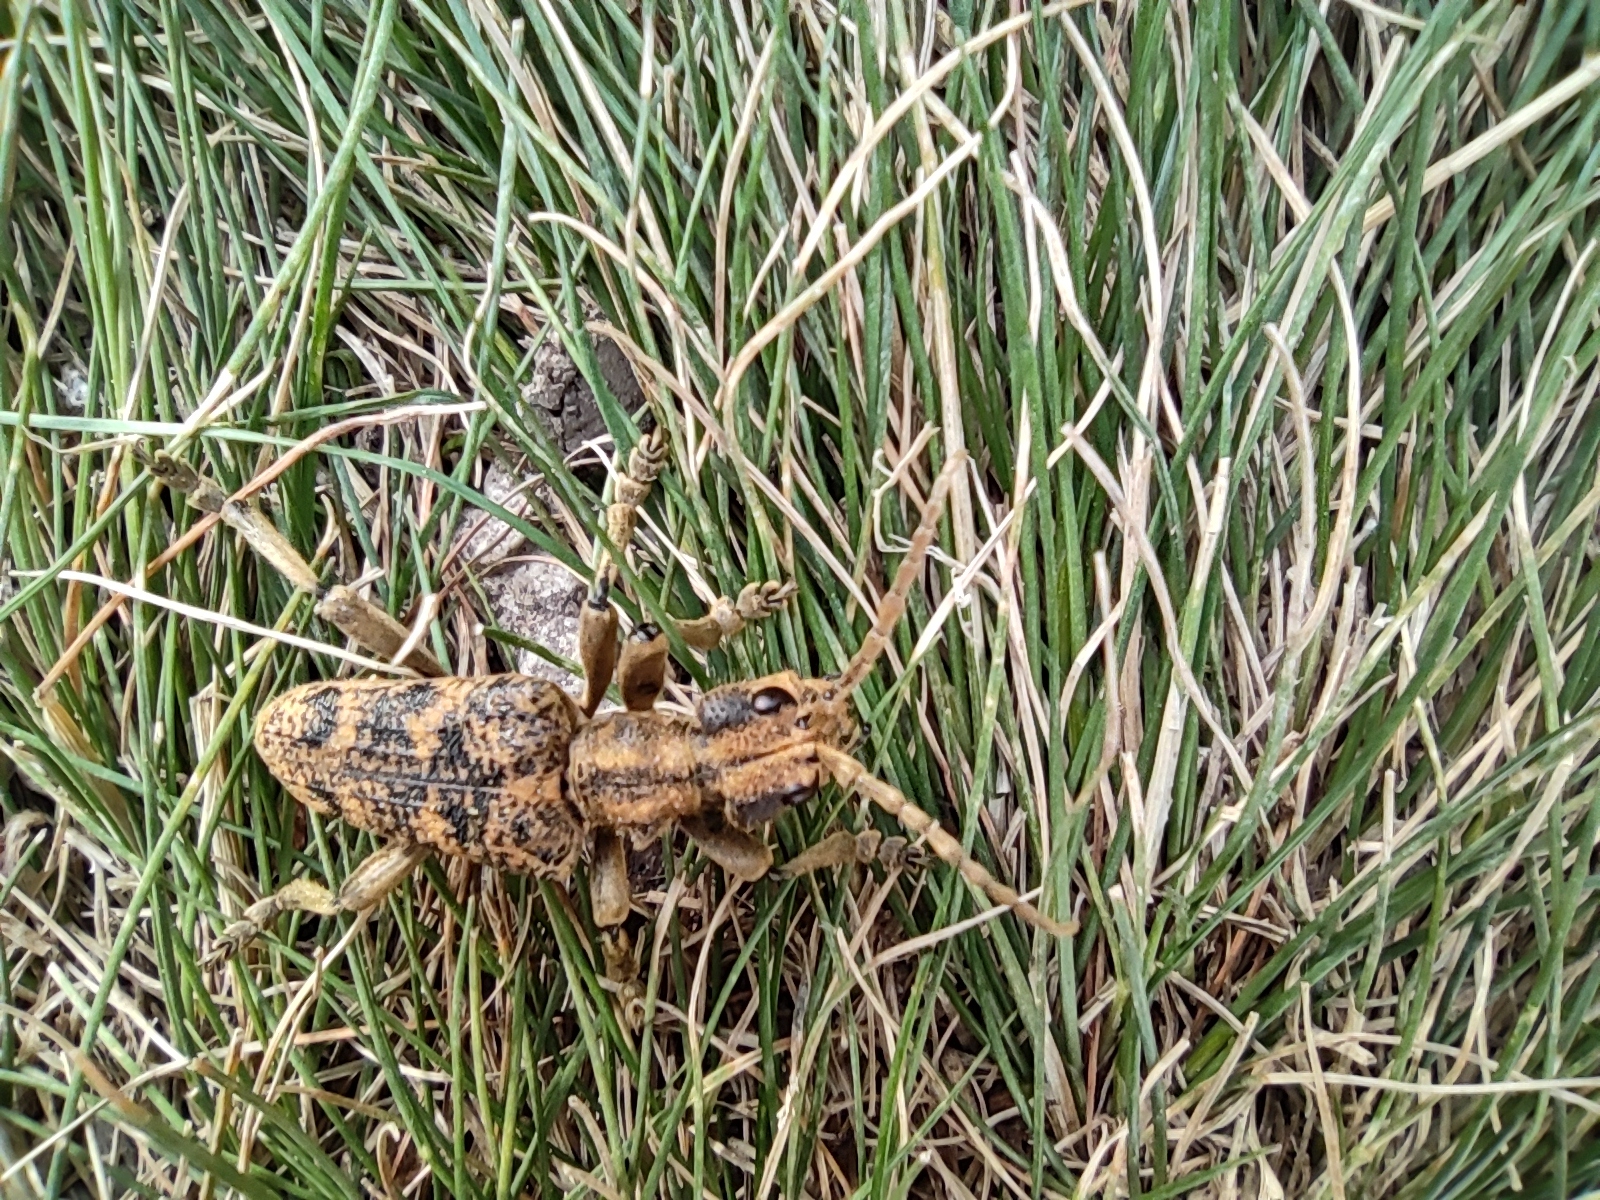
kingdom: Animalia
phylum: Arthropoda
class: Insecta
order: Coleoptera
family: Cerambycidae
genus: Rhagium
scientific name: Rhagium sycophanta
